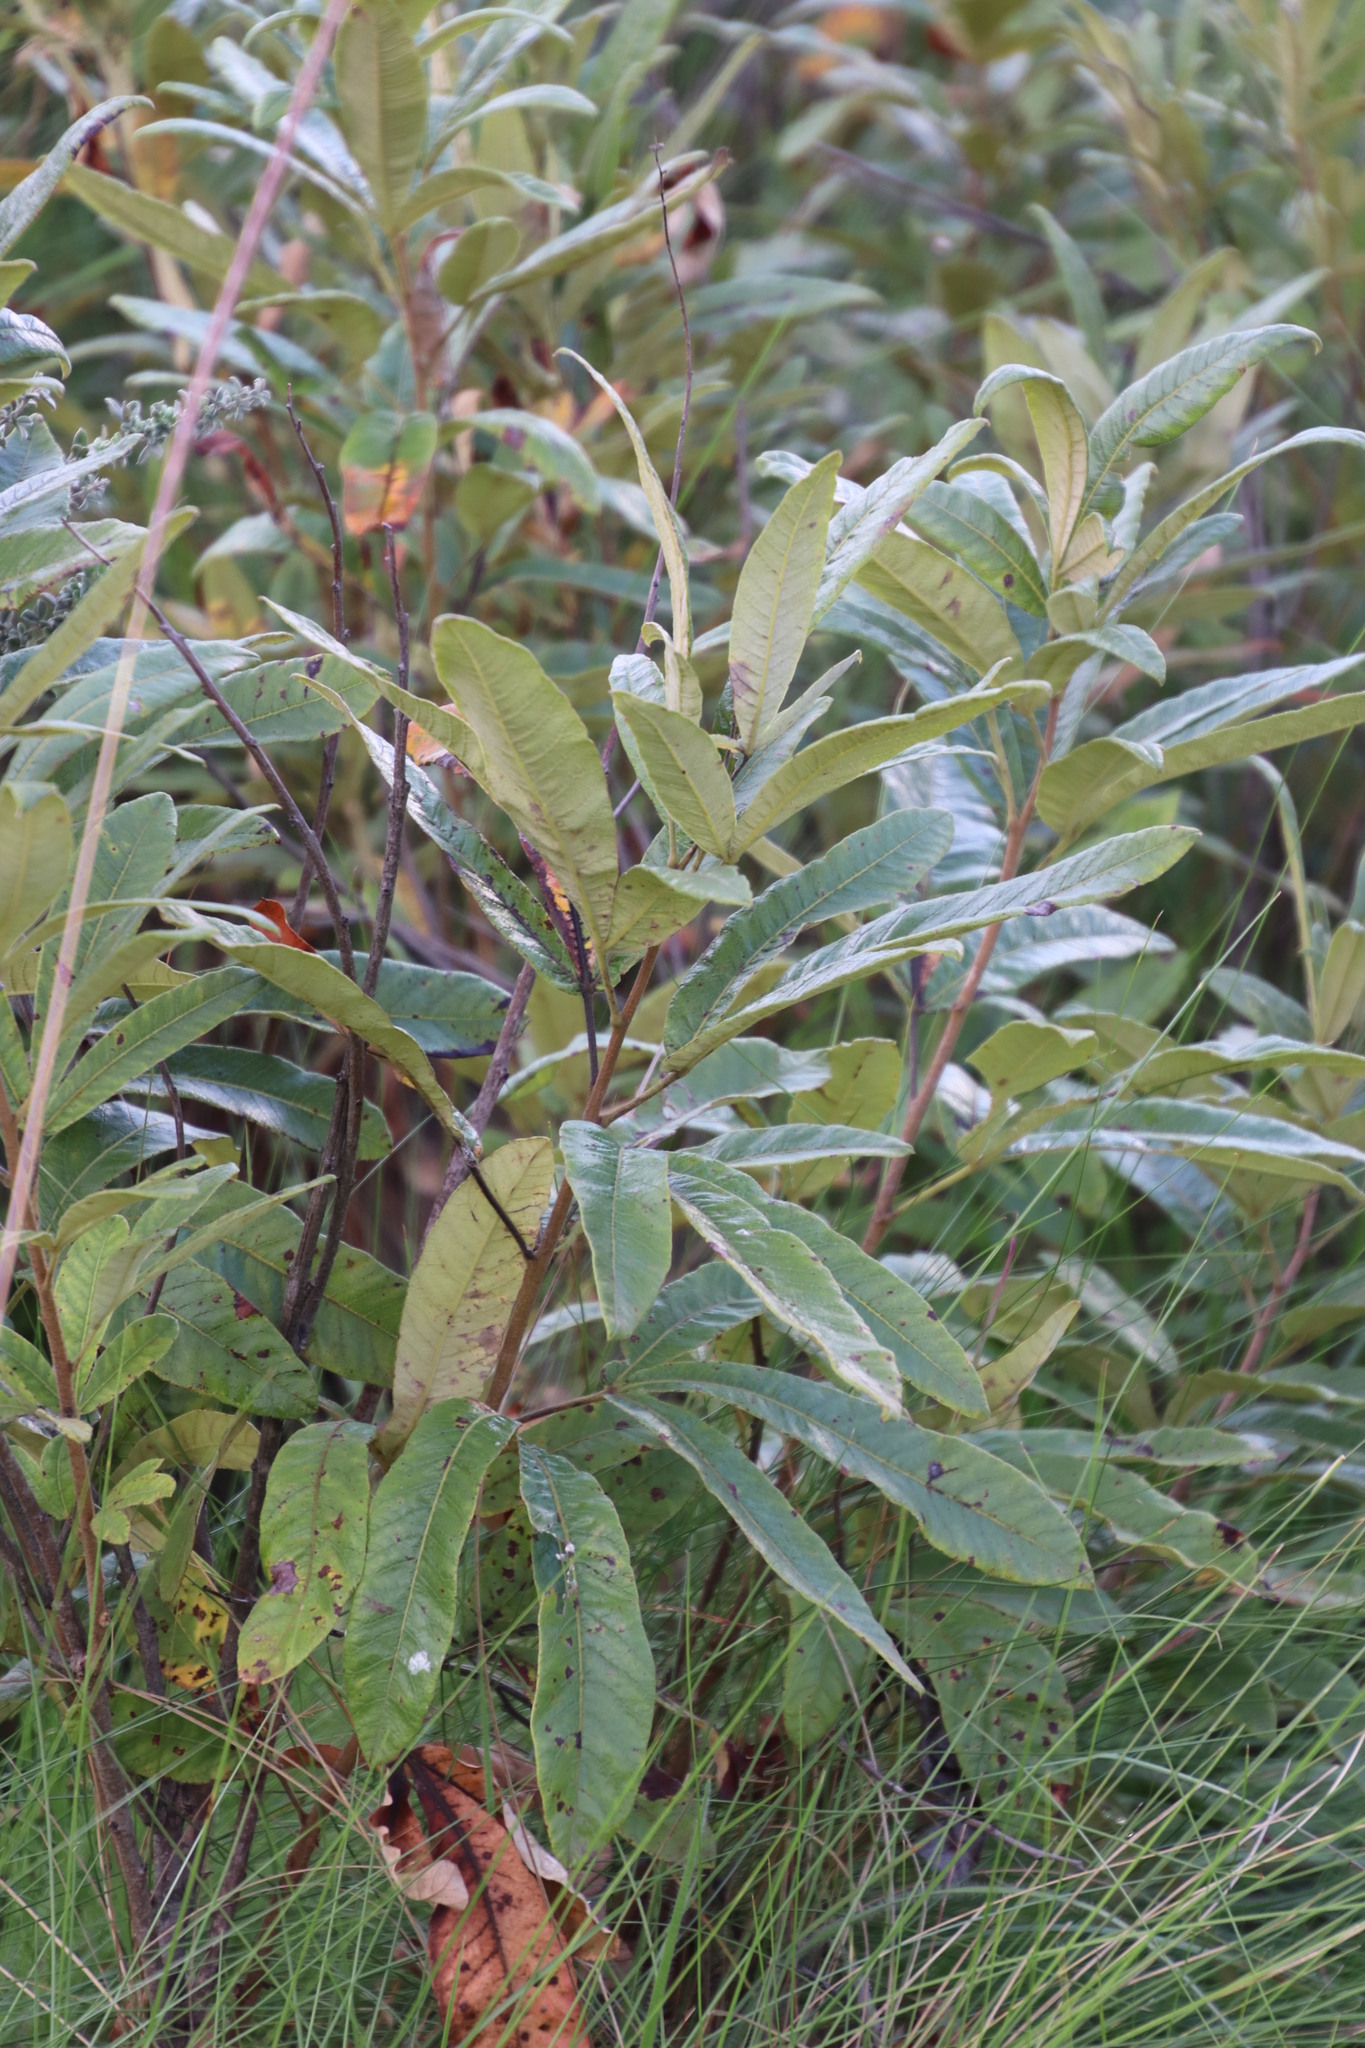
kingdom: Plantae
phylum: Tracheophyta
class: Magnoliopsida
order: Sapindales
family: Anacardiaceae
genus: Searsia
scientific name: Searsia discolor
